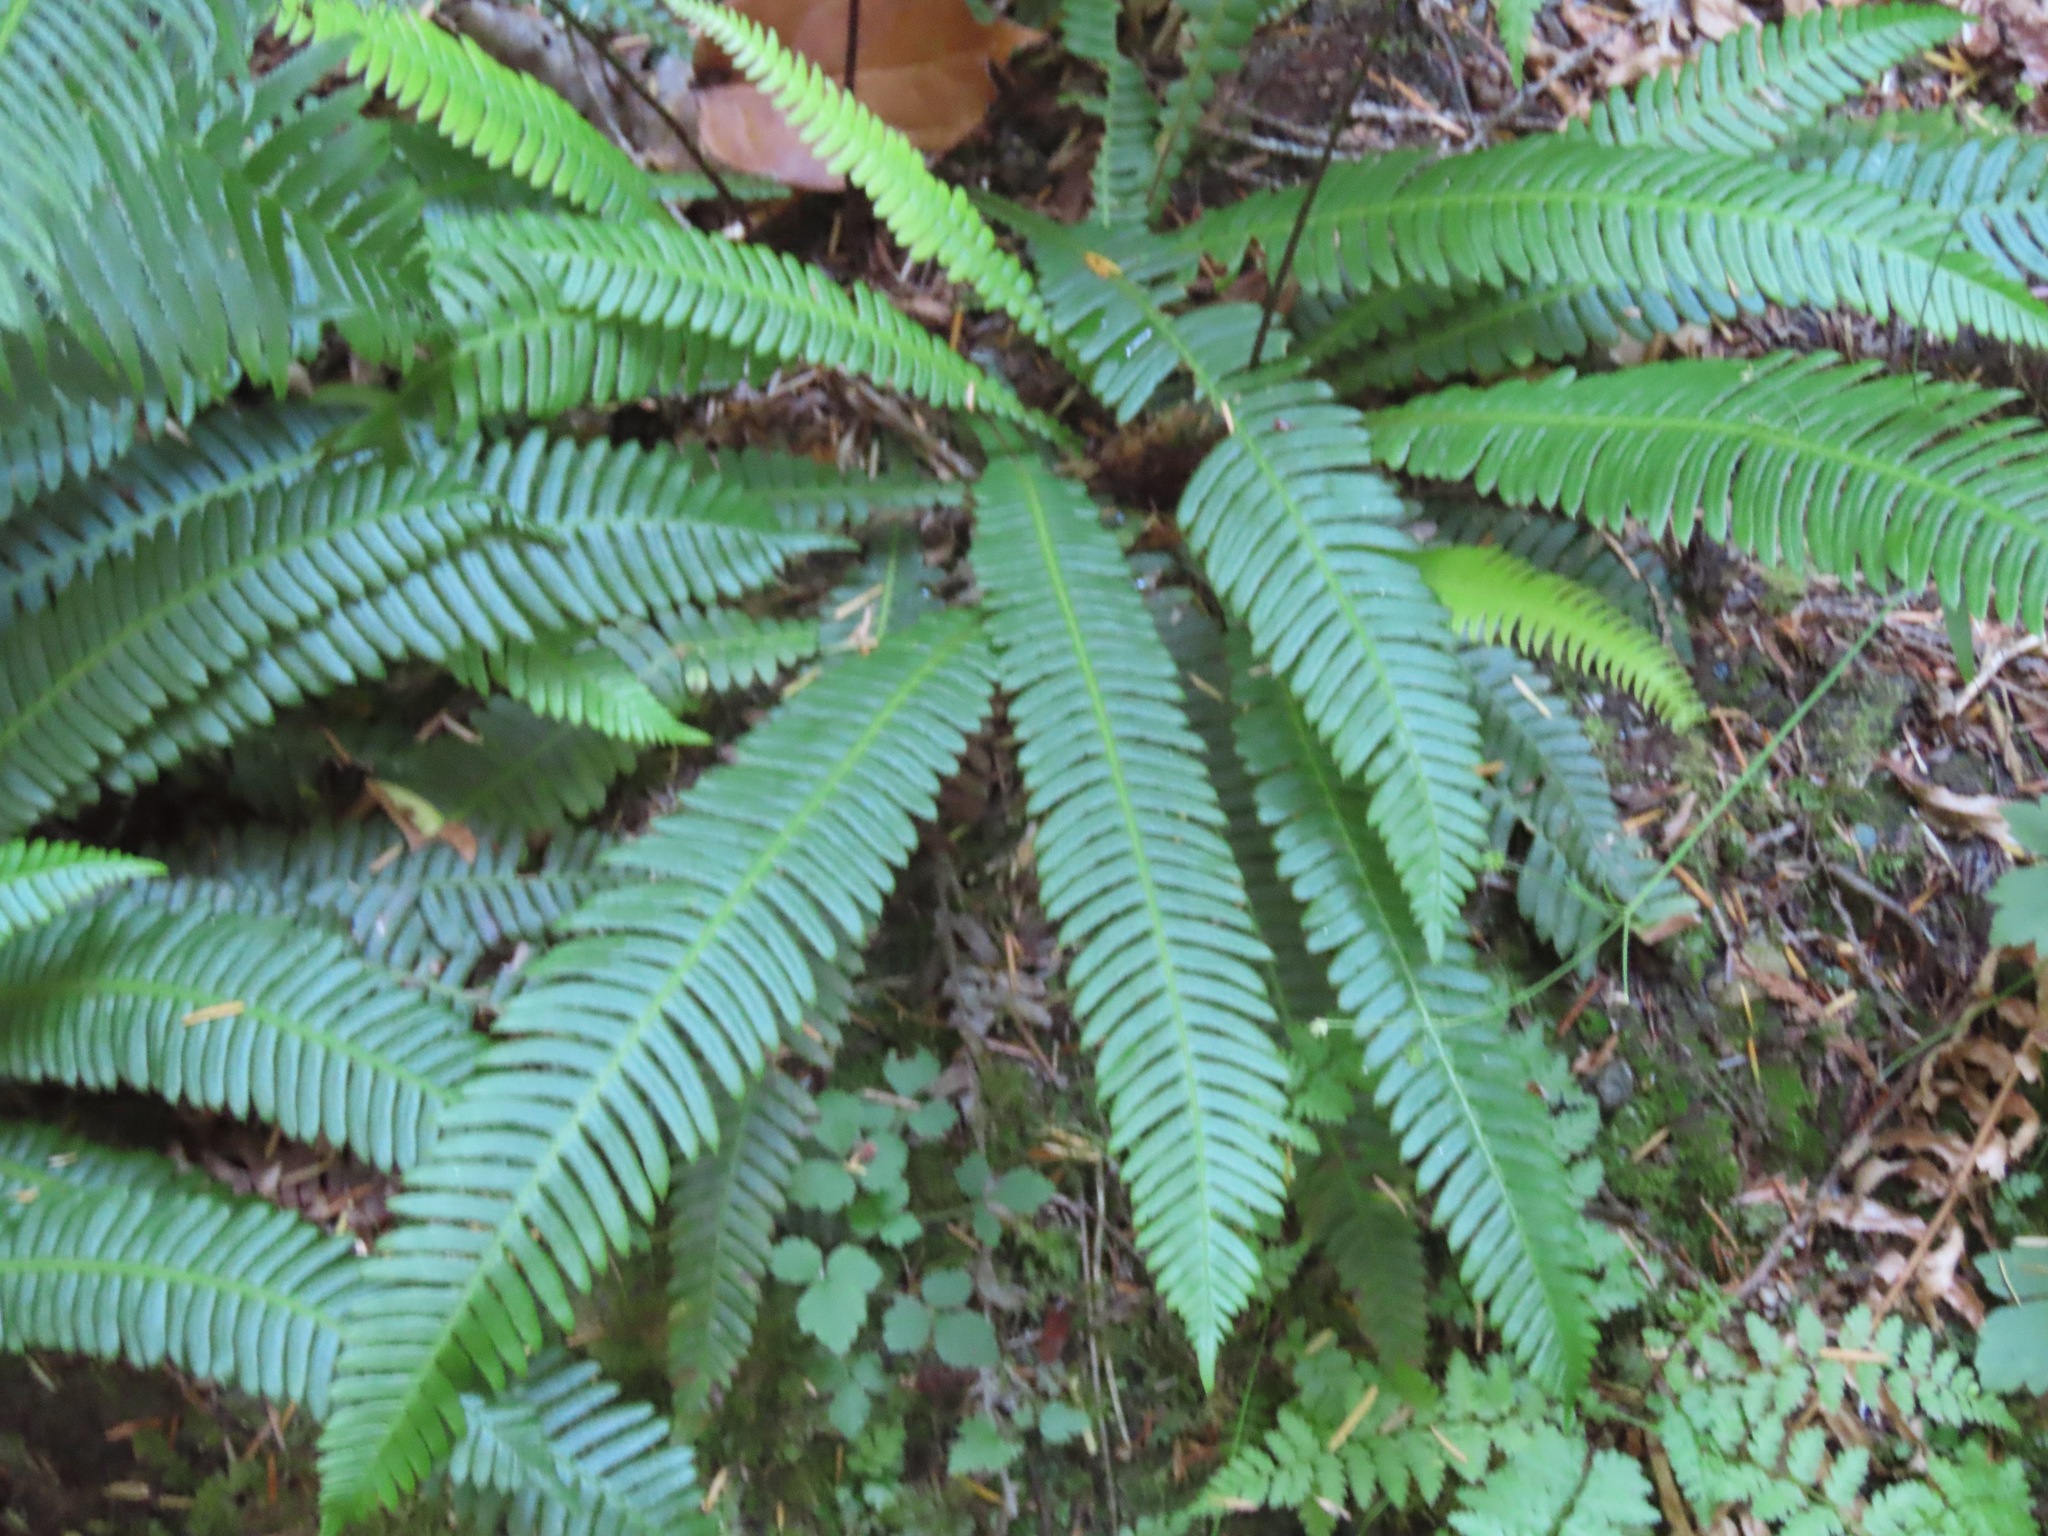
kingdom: Plantae
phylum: Tracheophyta
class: Polypodiopsida
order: Polypodiales
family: Blechnaceae
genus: Struthiopteris
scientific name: Struthiopteris spicant
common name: Deer fern
